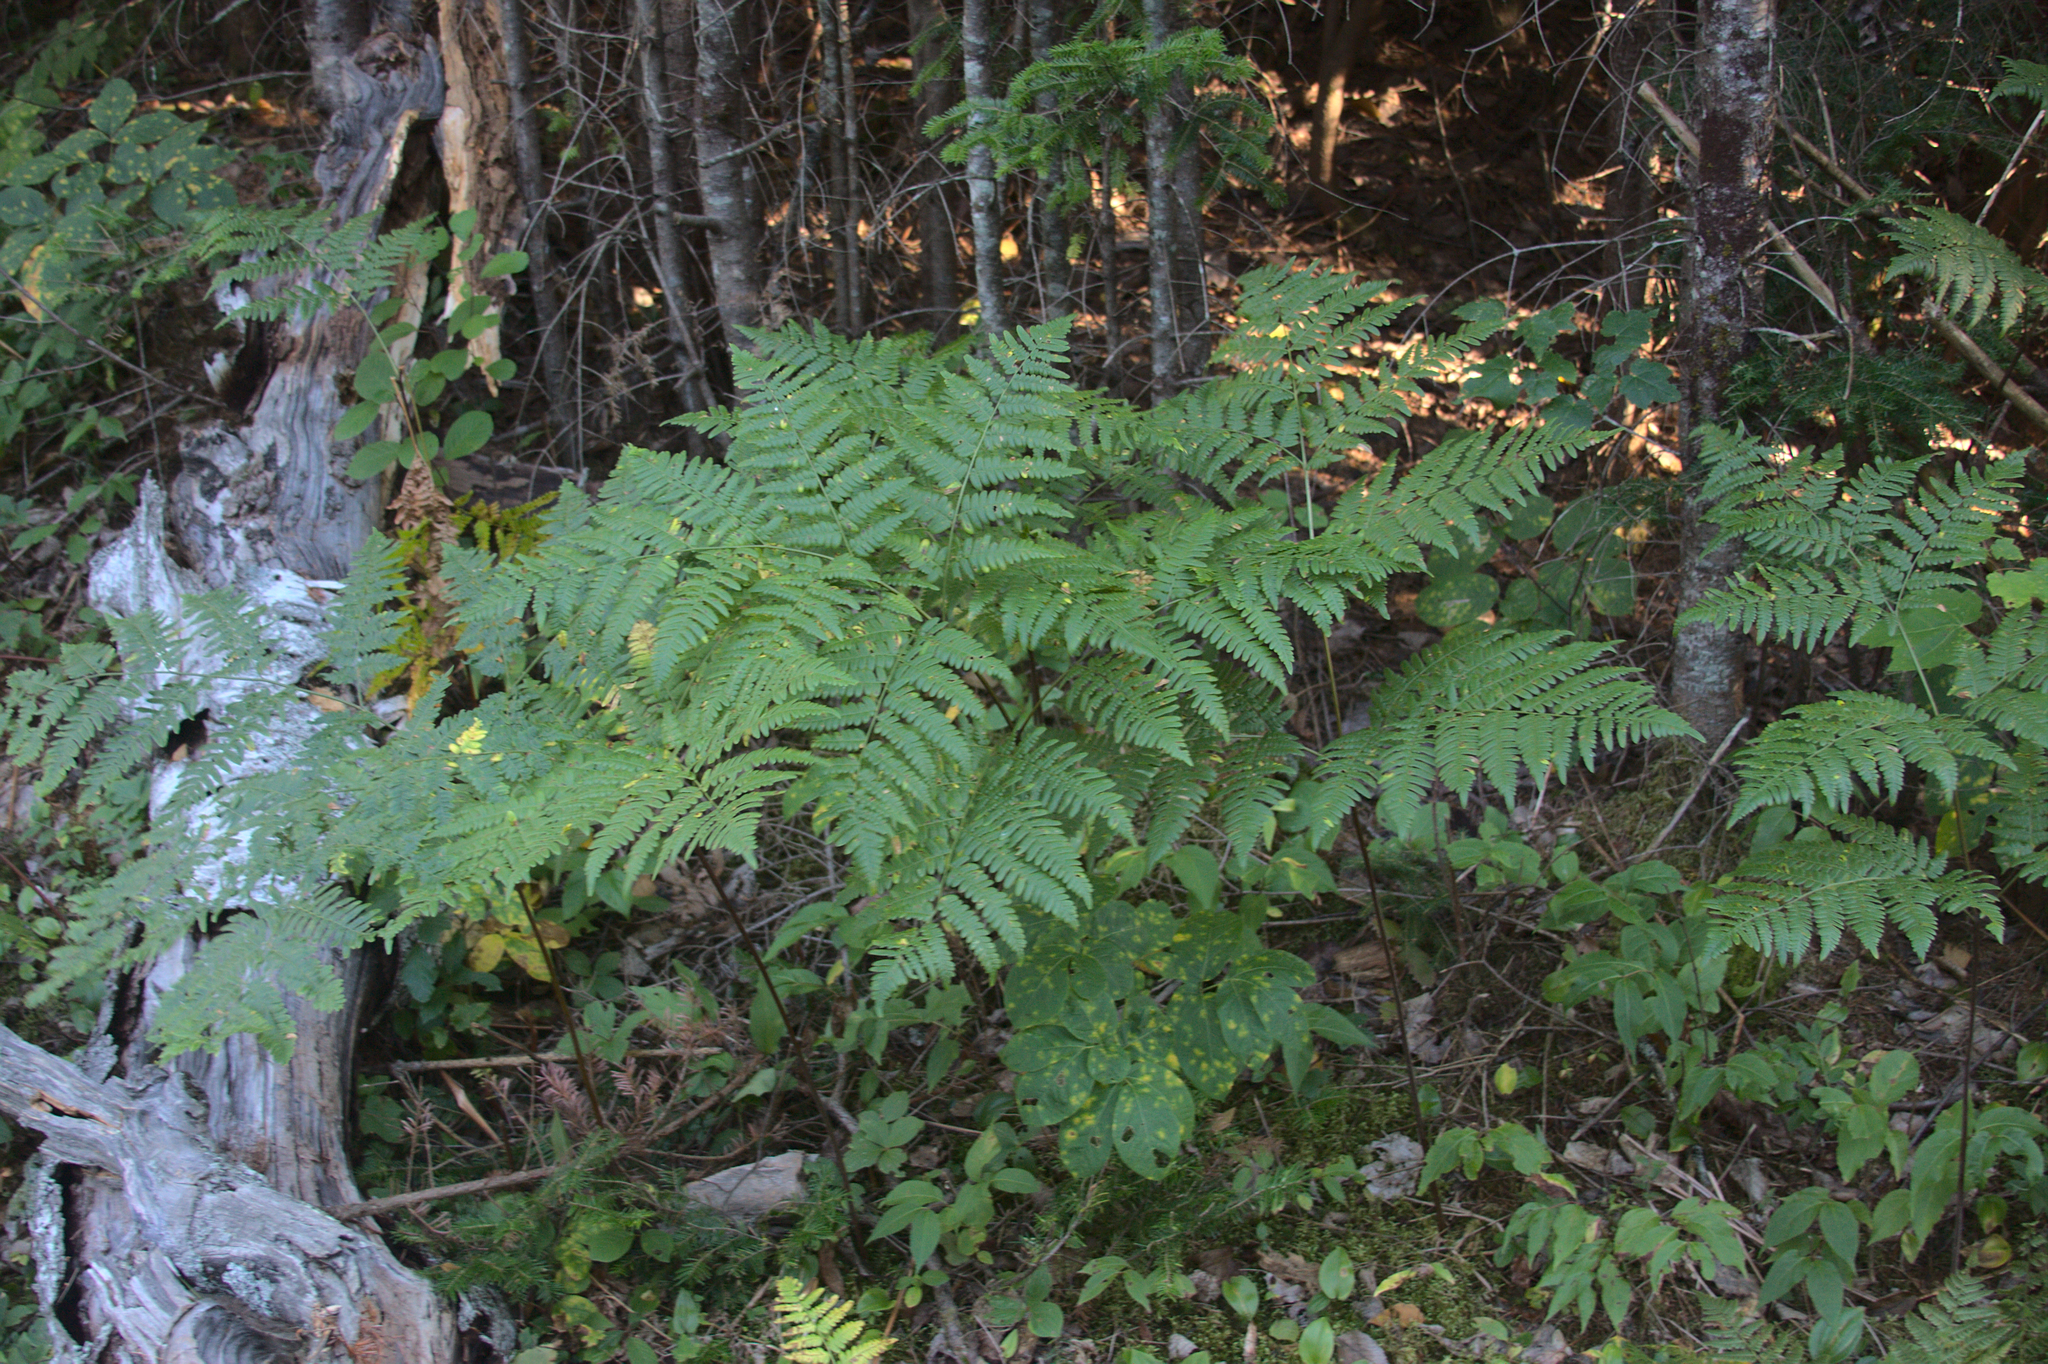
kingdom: Plantae
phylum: Tracheophyta
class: Polypodiopsida
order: Polypodiales
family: Dennstaedtiaceae
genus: Pteridium
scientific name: Pteridium aquilinum
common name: Bracken
